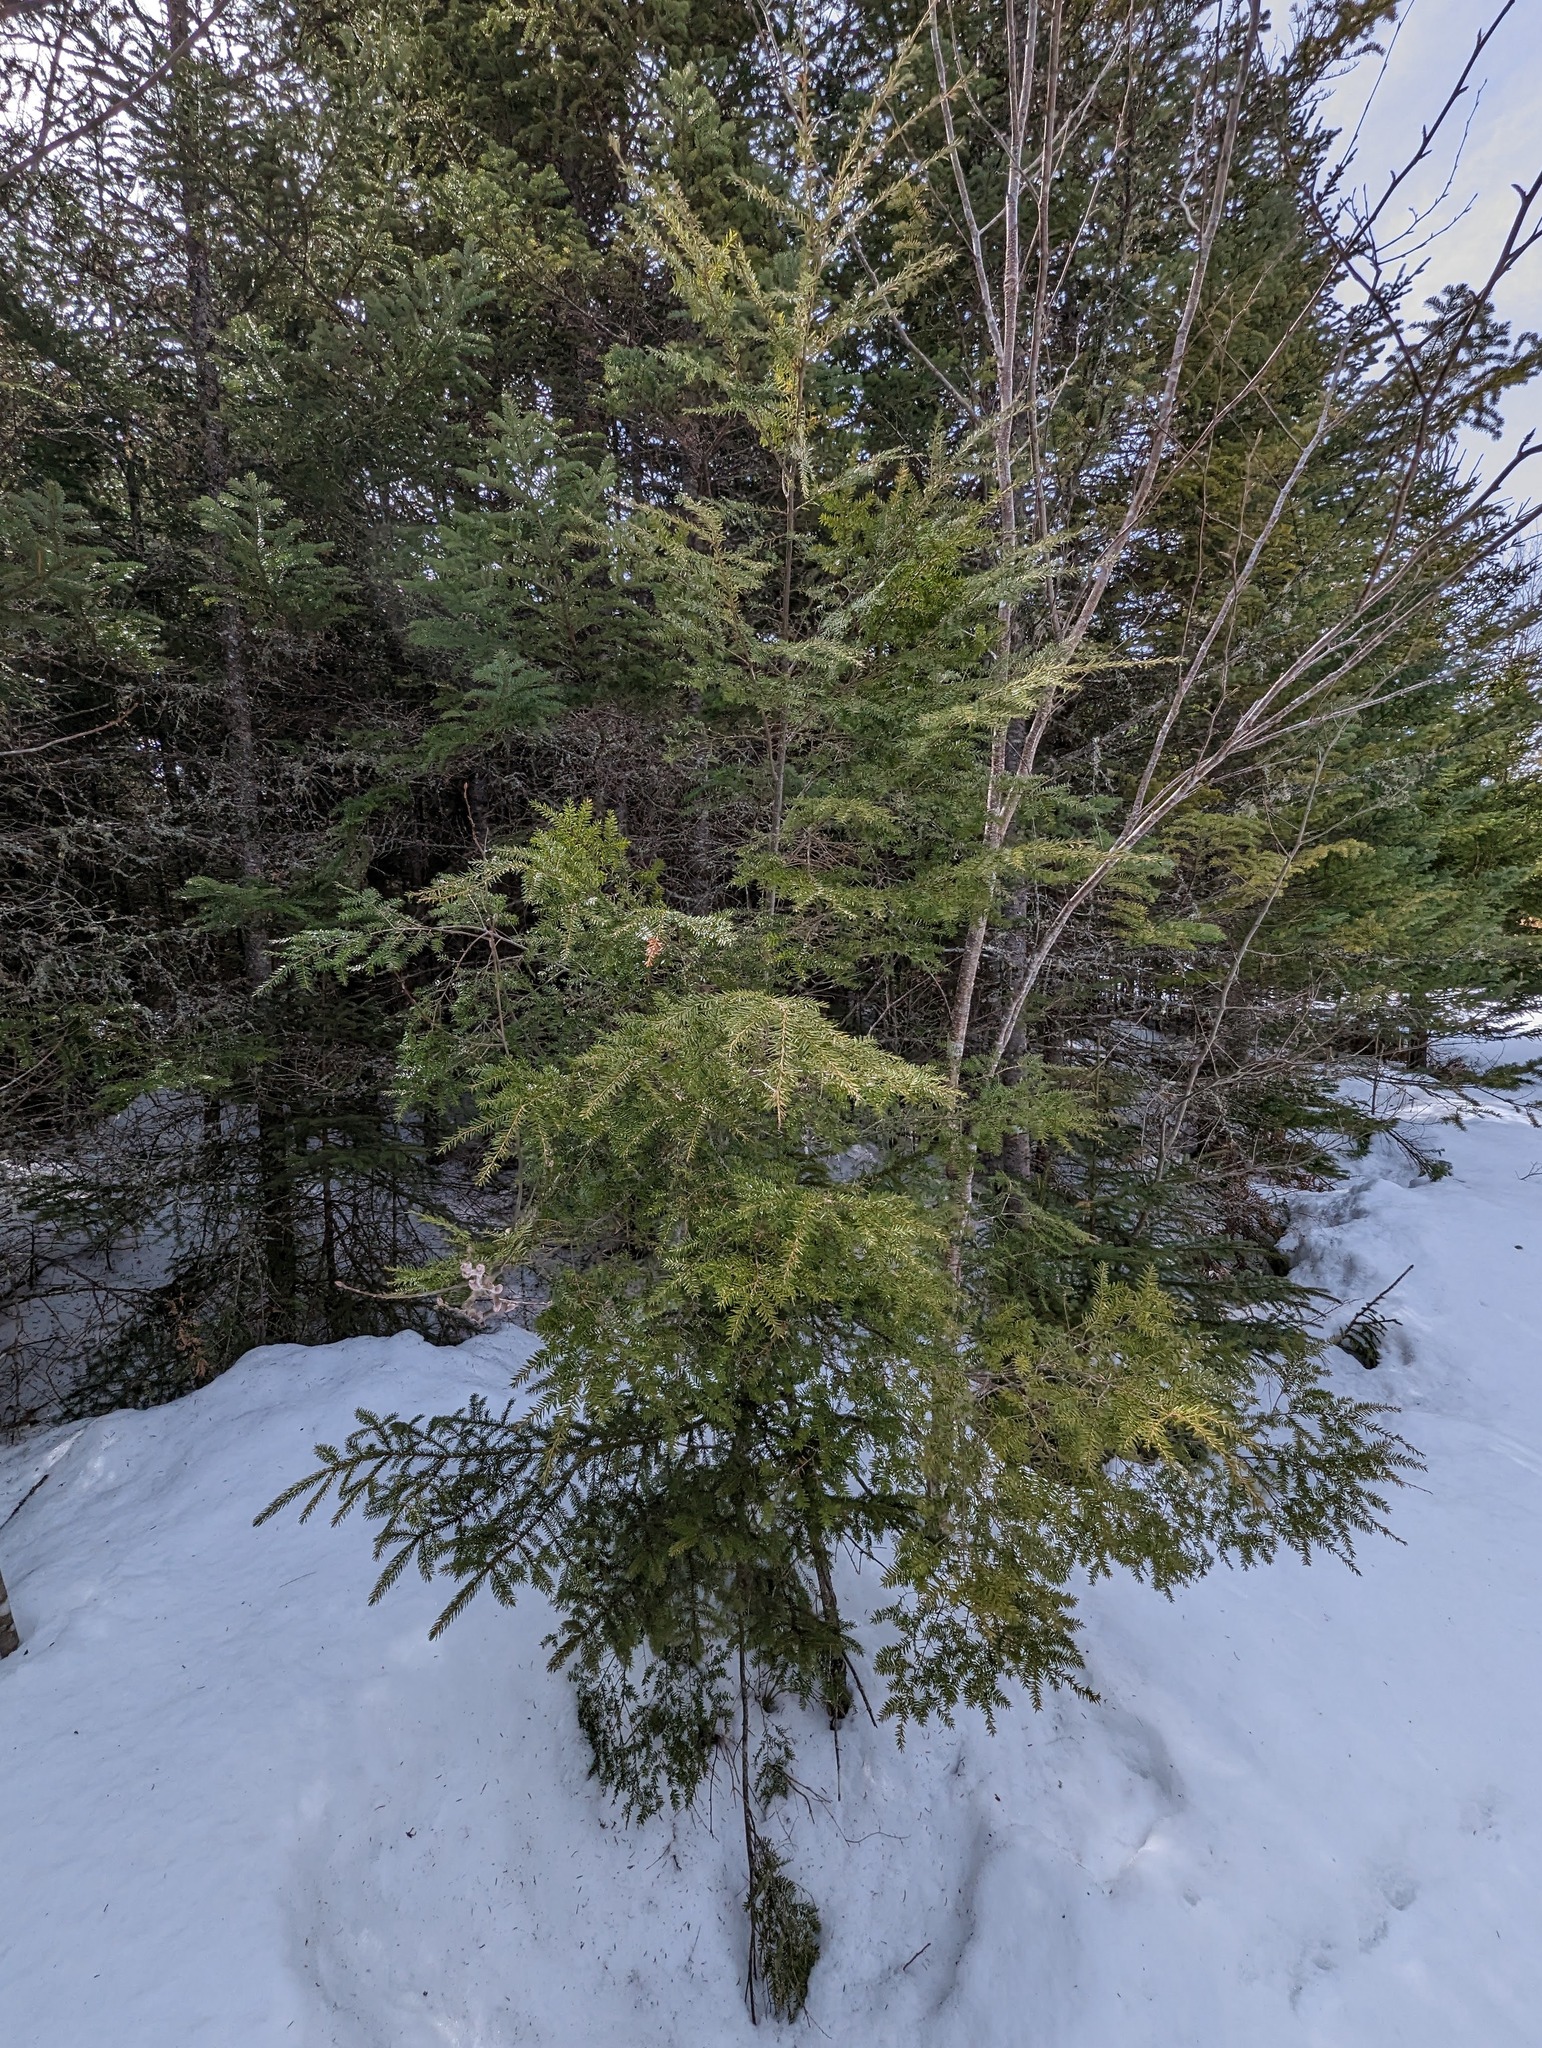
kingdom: Plantae
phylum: Tracheophyta
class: Pinopsida
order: Pinales
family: Pinaceae
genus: Tsuga
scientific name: Tsuga canadensis
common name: Eastern hemlock
